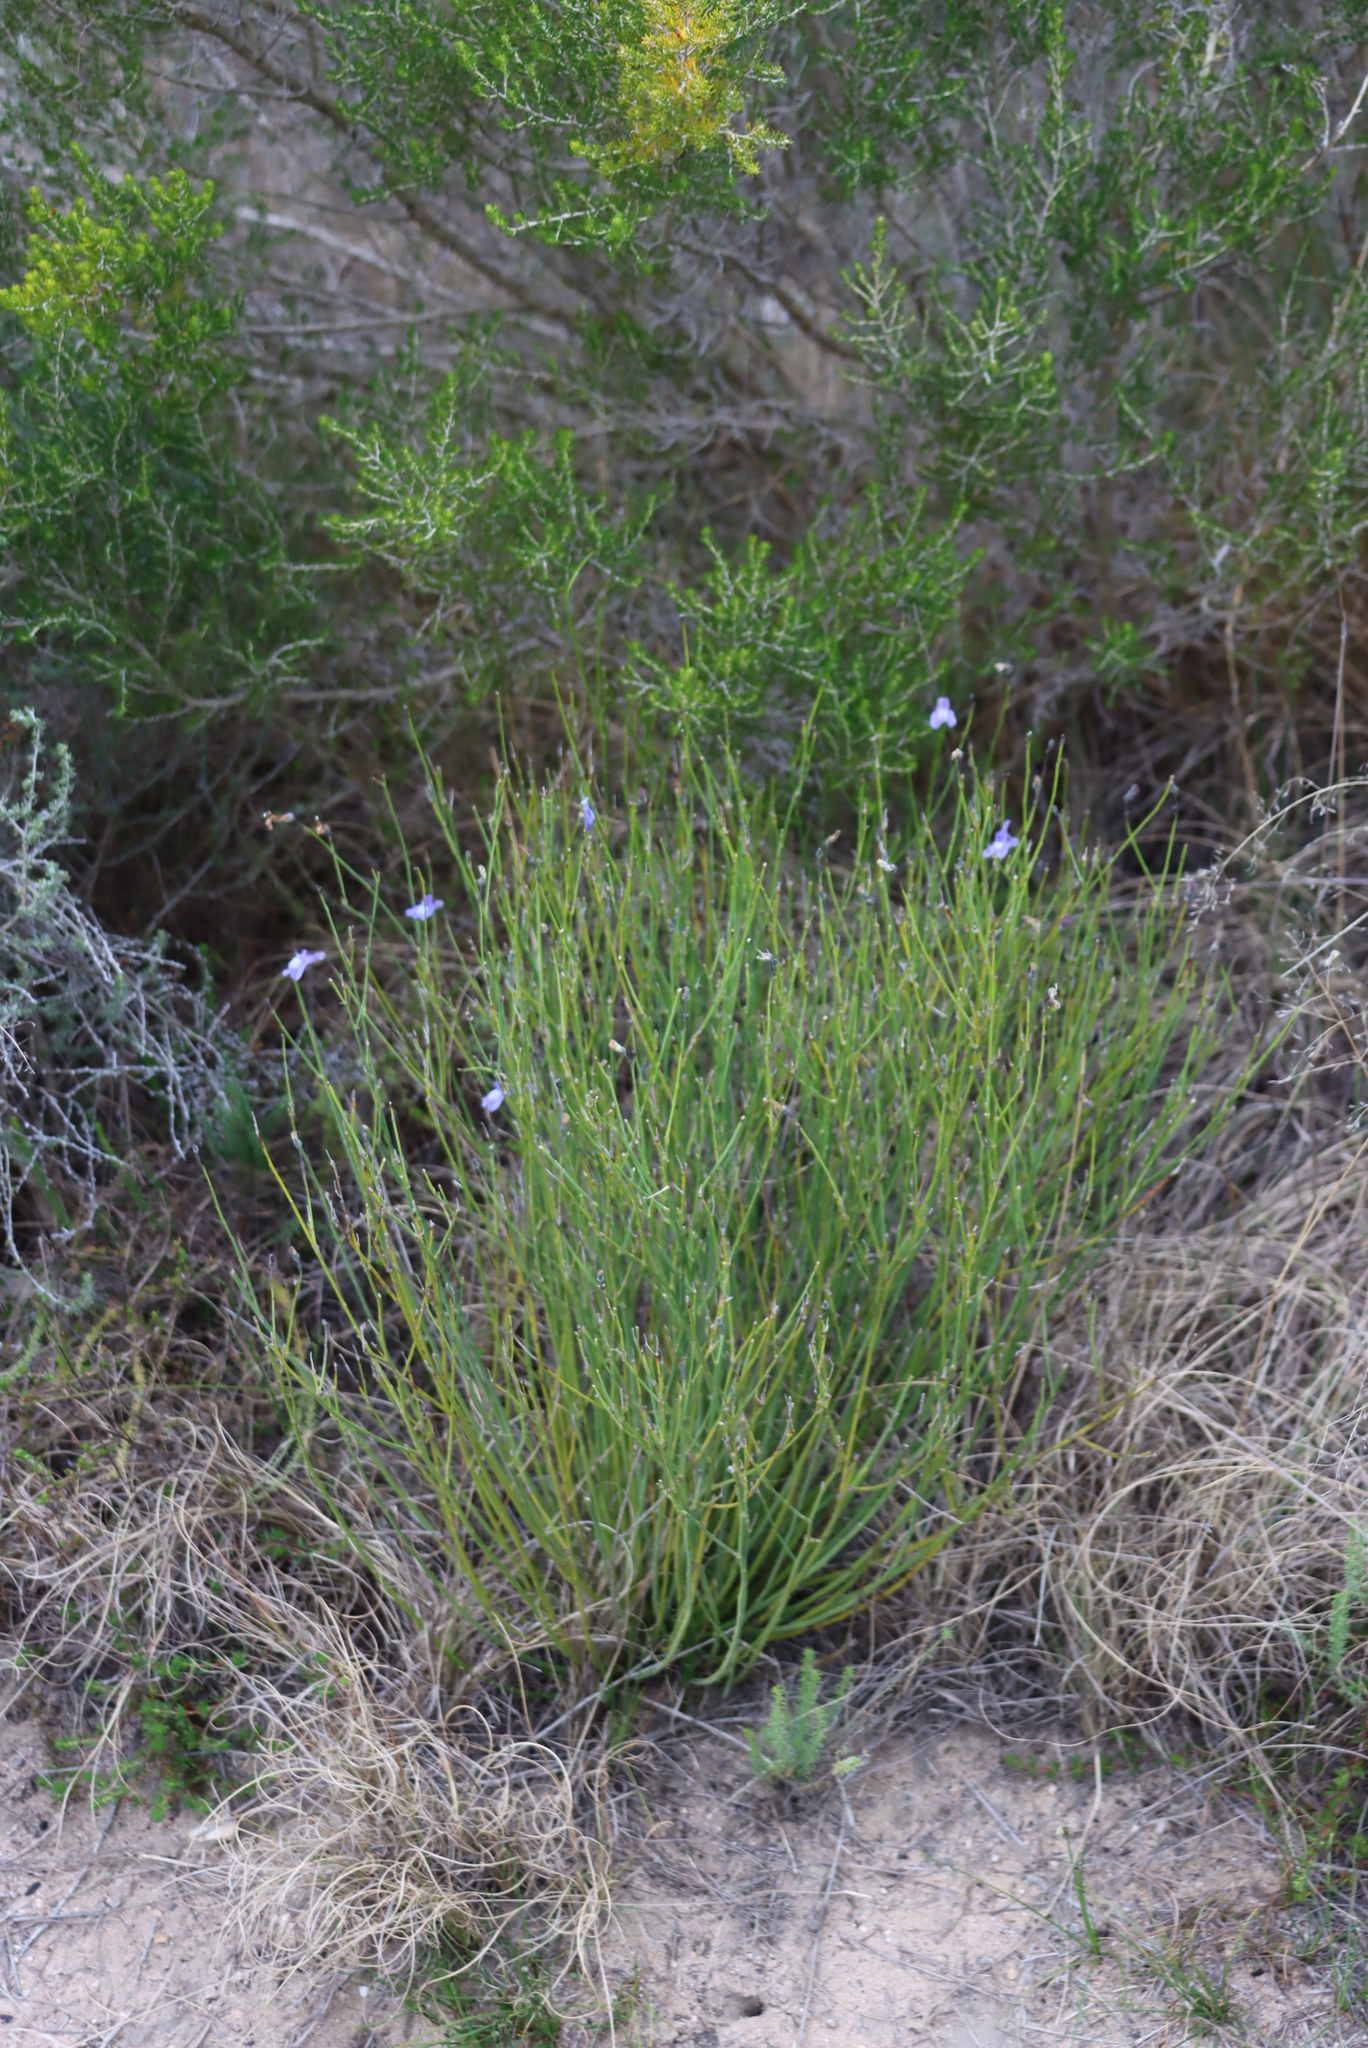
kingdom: Plantae
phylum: Tracheophyta
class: Magnoliopsida
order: Asterales
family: Campanulaceae
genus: Lobelia
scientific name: Lobelia linearis
